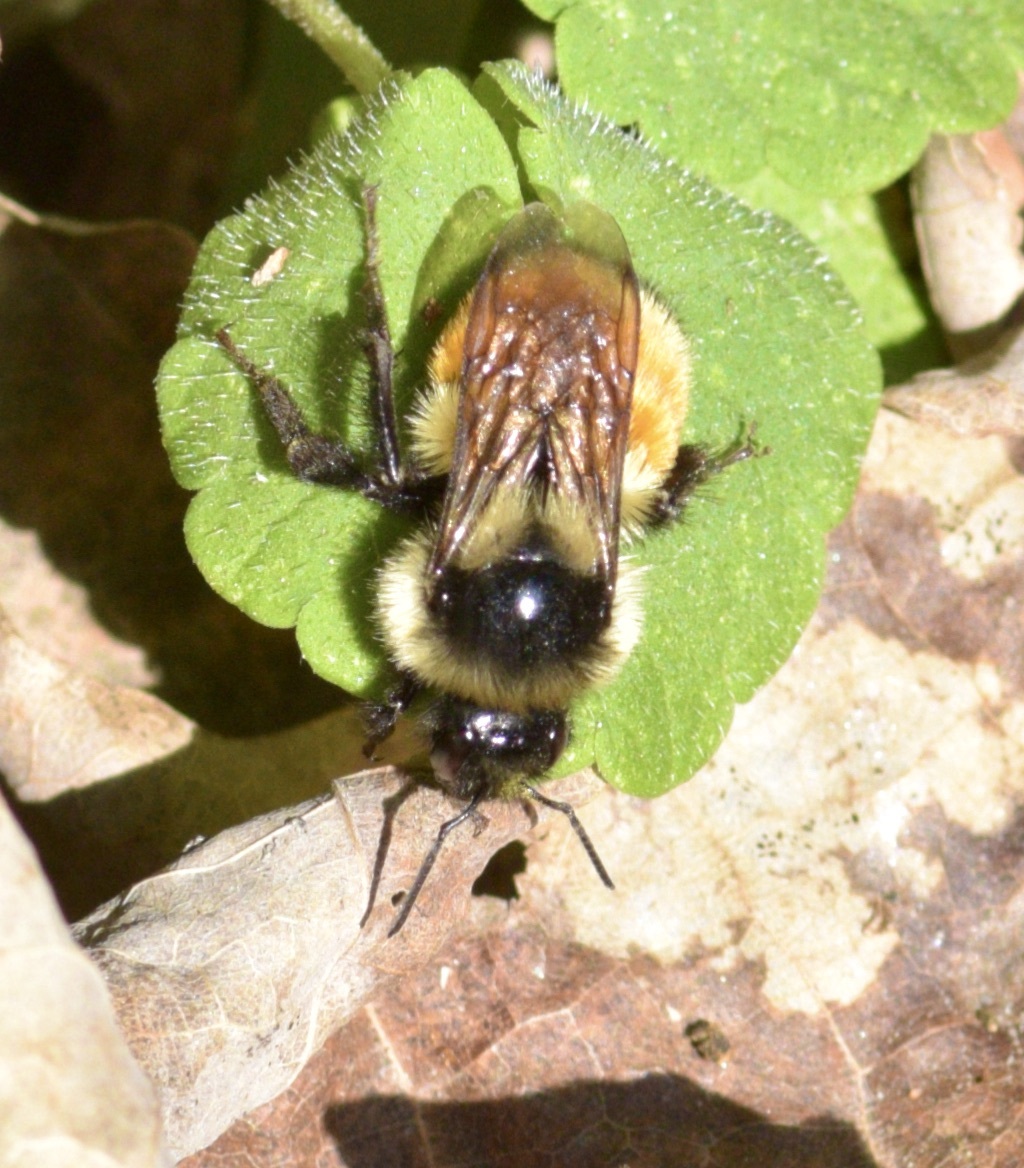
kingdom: Animalia
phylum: Arthropoda
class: Insecta
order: Hymenoptera
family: Apidae
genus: Bombus
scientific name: Bombus ternarius
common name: Tri-colored bumble bee
